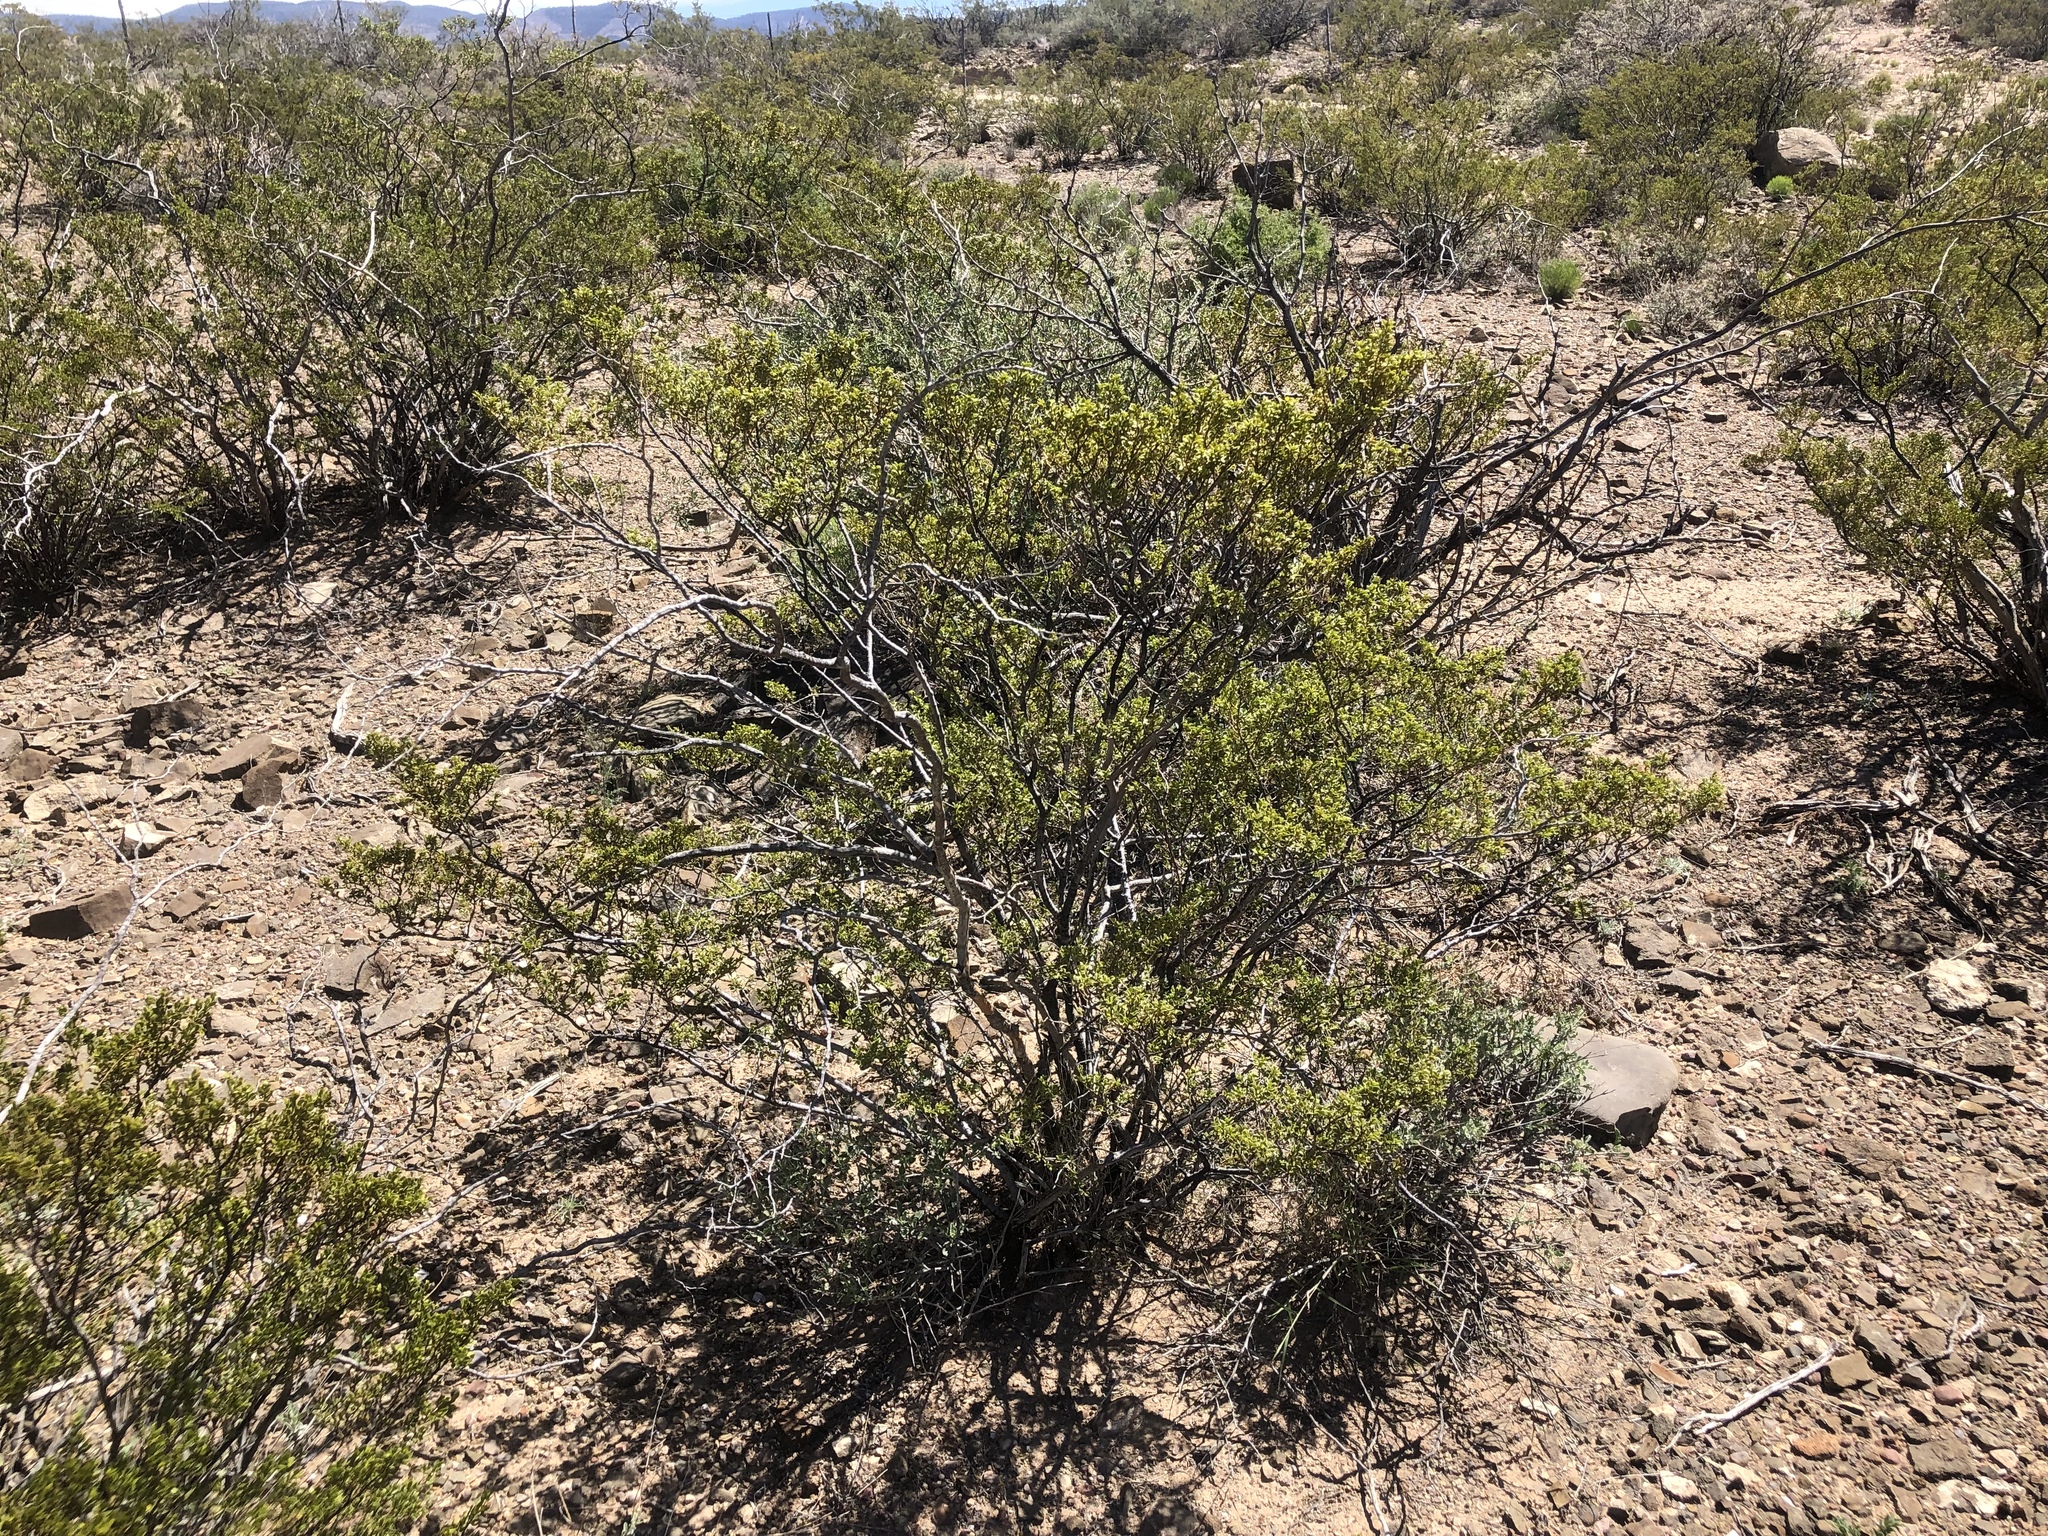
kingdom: Plantae
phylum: Tracheophyta
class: Magnoliopsida
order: Zygophyllales
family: Zygophyllaceae
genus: Larrea
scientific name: Larrea tridentata
